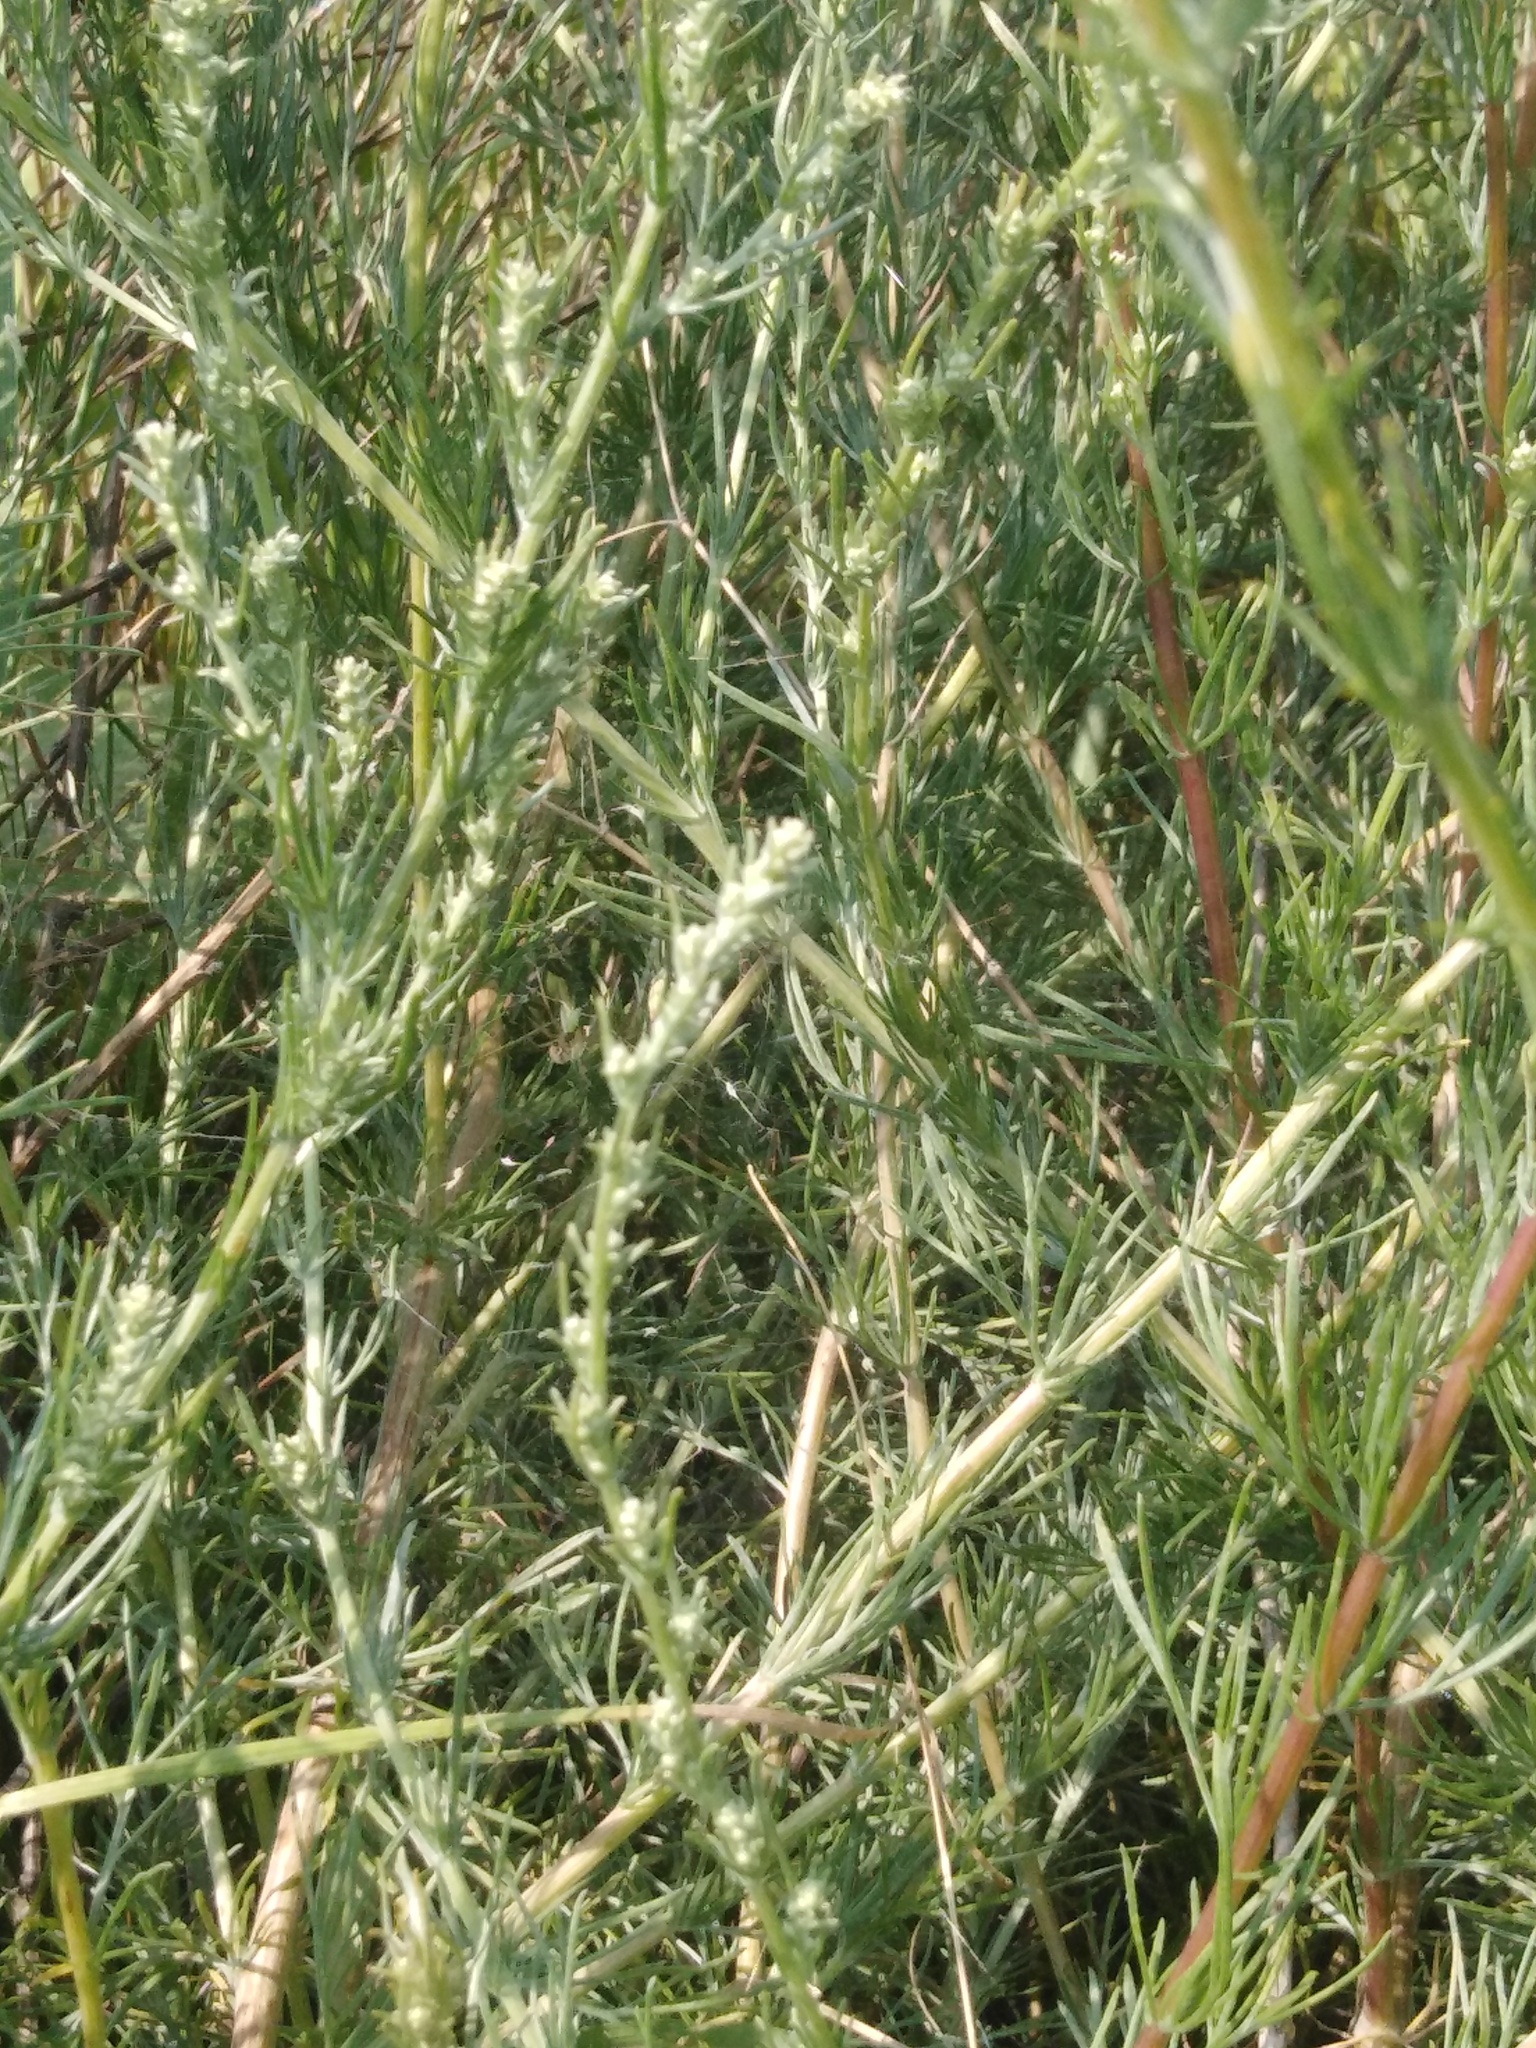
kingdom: Plantae
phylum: Tracheophyta
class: Magnoliopsida
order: Asterales
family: Asteraceae
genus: Artemisia
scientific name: Artemisia campestris
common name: Field wormwood
